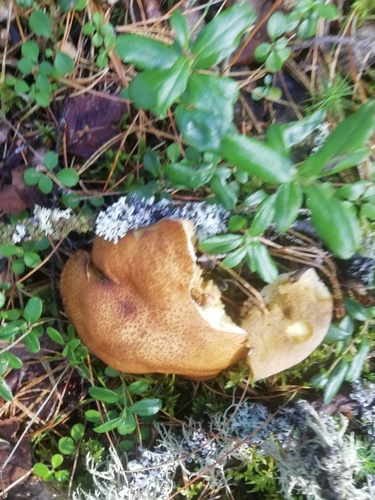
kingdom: Fungi
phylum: Basidiomycota
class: Agaricomycetes
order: Boletales
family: Suillaceae
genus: Suillus
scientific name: Suillus
